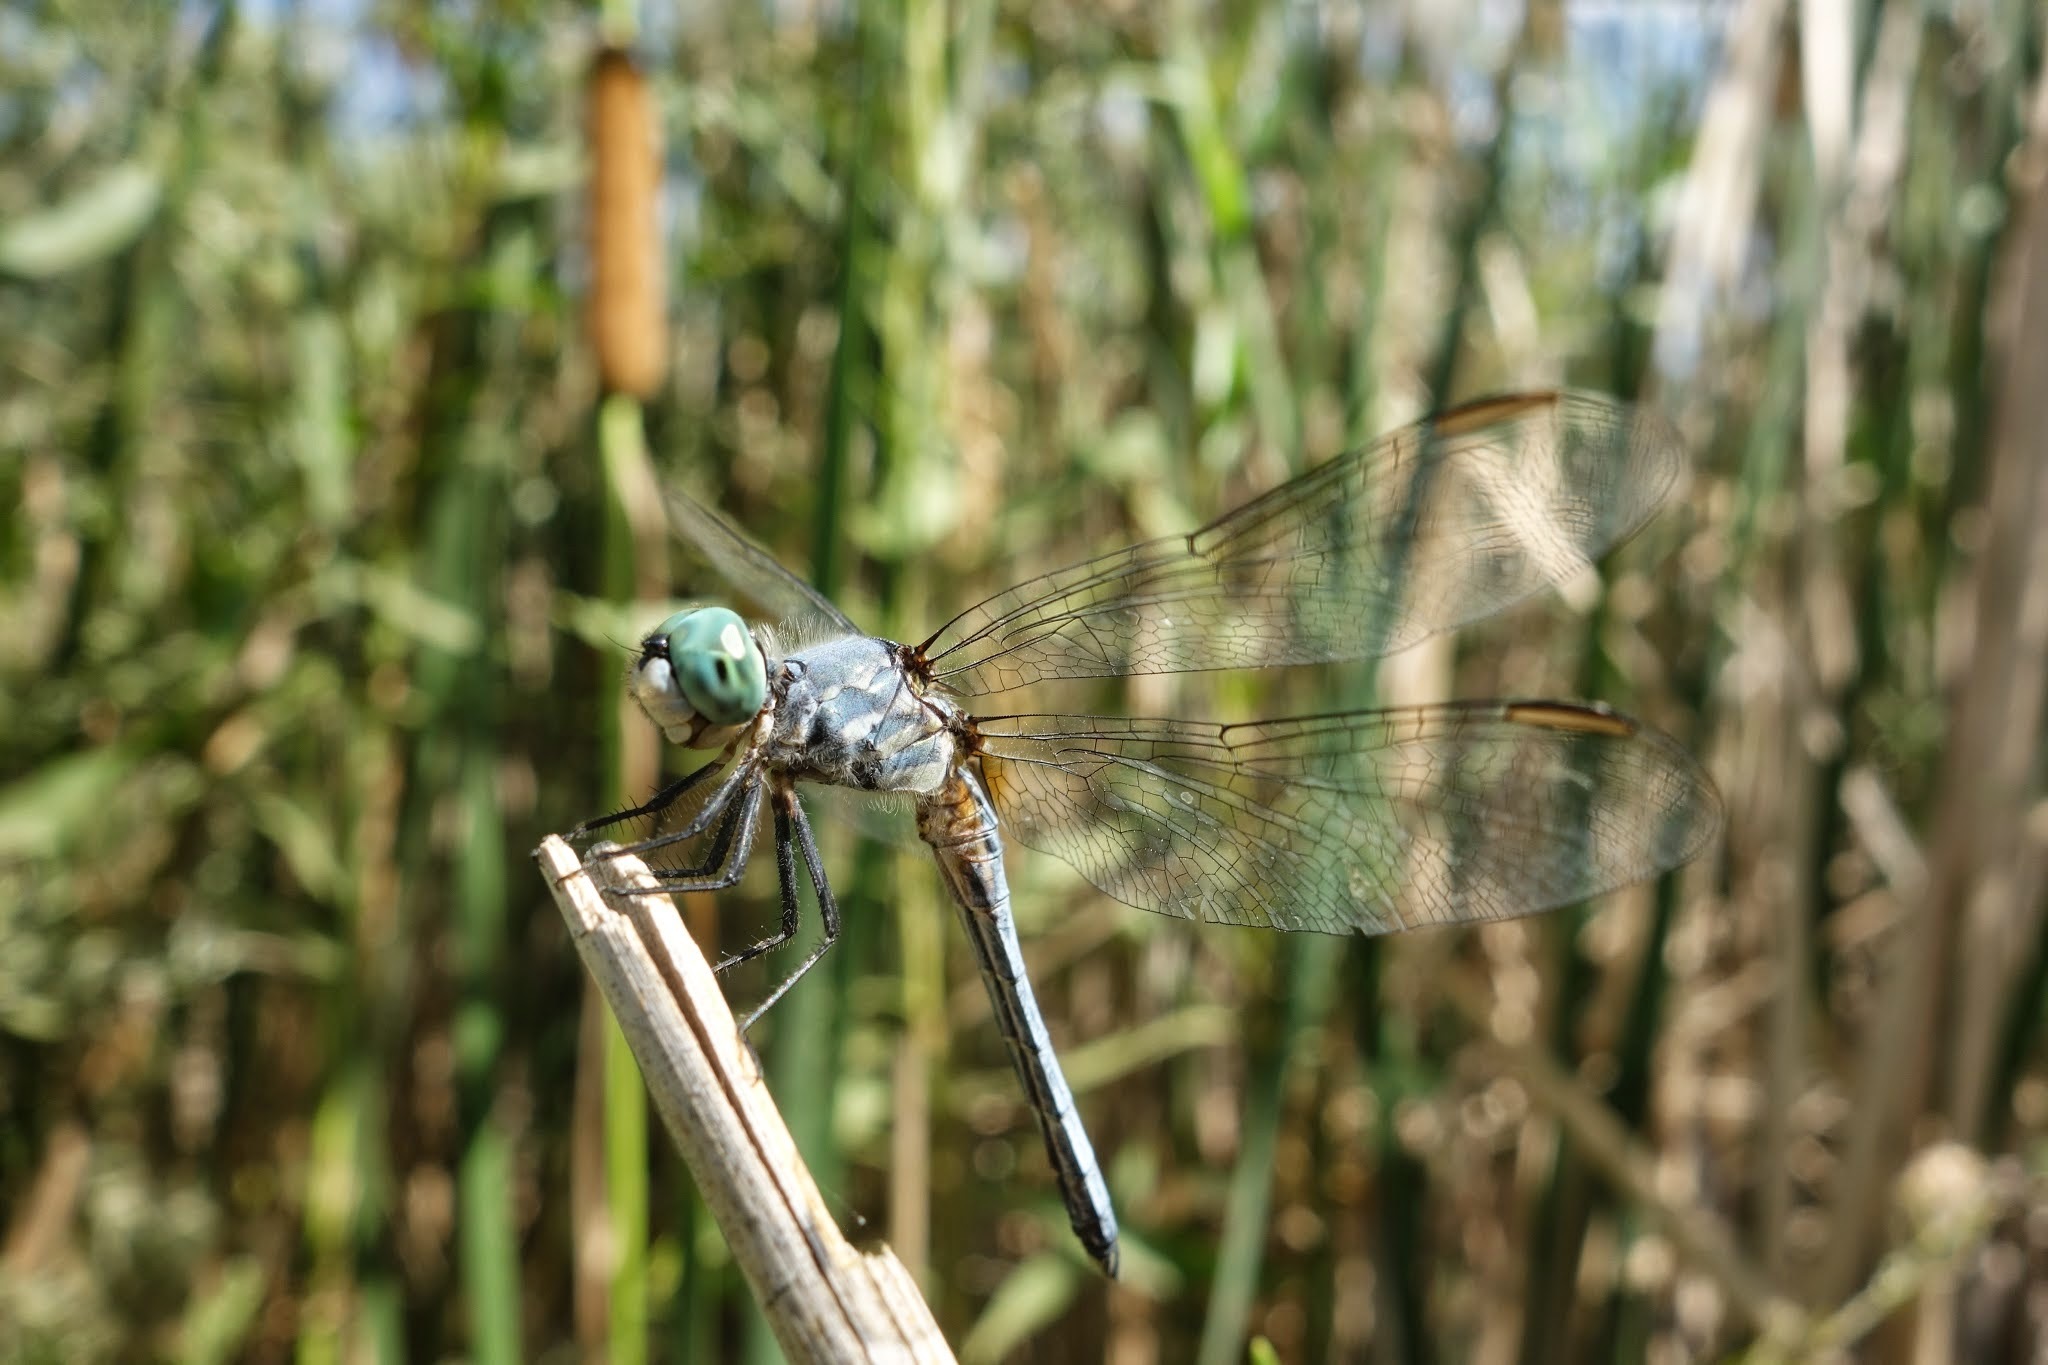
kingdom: Animalia
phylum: Arthropoda
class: Insecta
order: Odonata
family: Libellulidae
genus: Pachydiplax
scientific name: Pachydiplax longipennis
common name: Blue dasher
